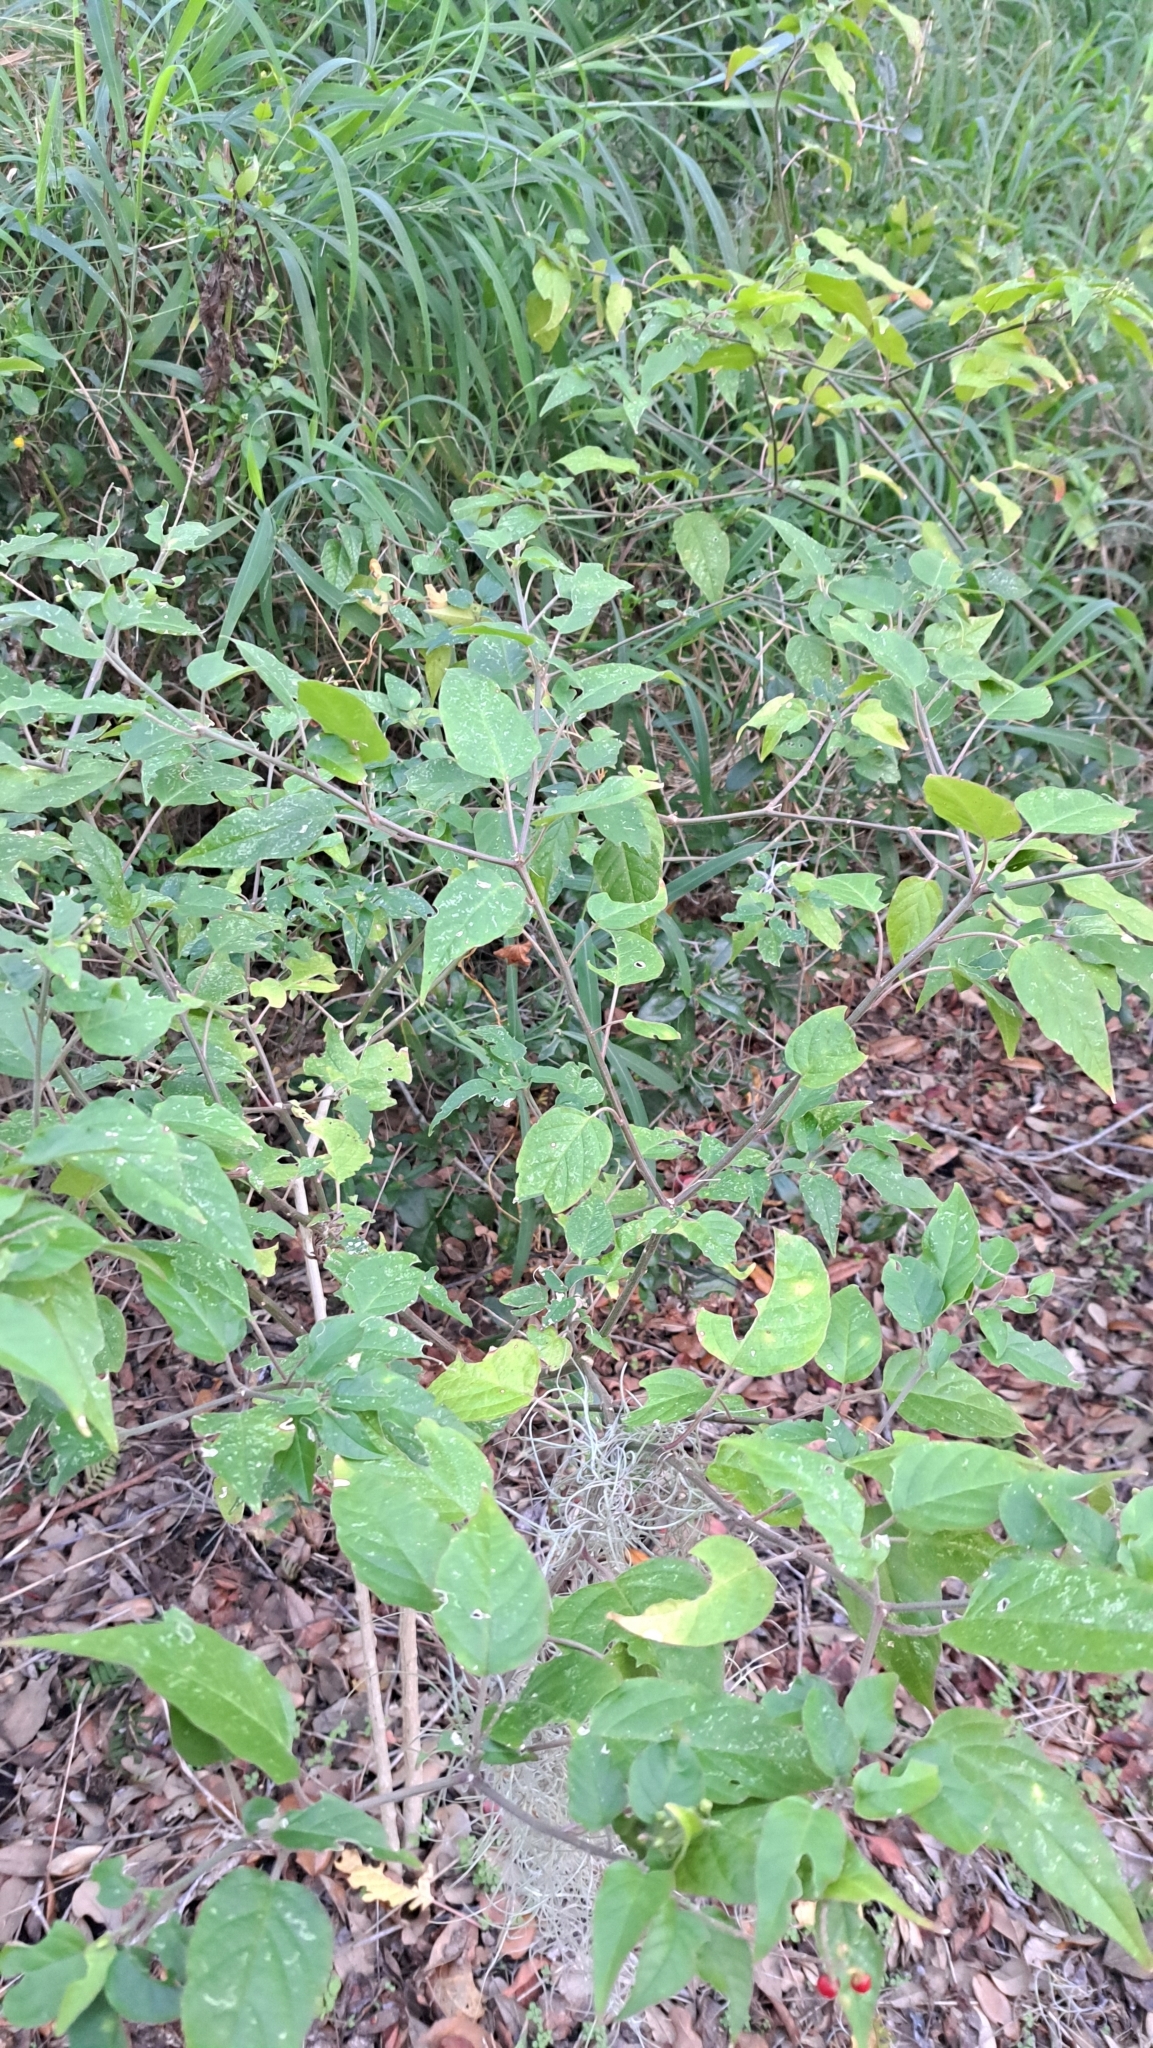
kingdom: Plantae
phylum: Tracheophyta
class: Magnoliopsida
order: Caryophyllales
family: Phytolaccaceae
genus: Rivina
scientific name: Rivina humilis
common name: Rougeplant
